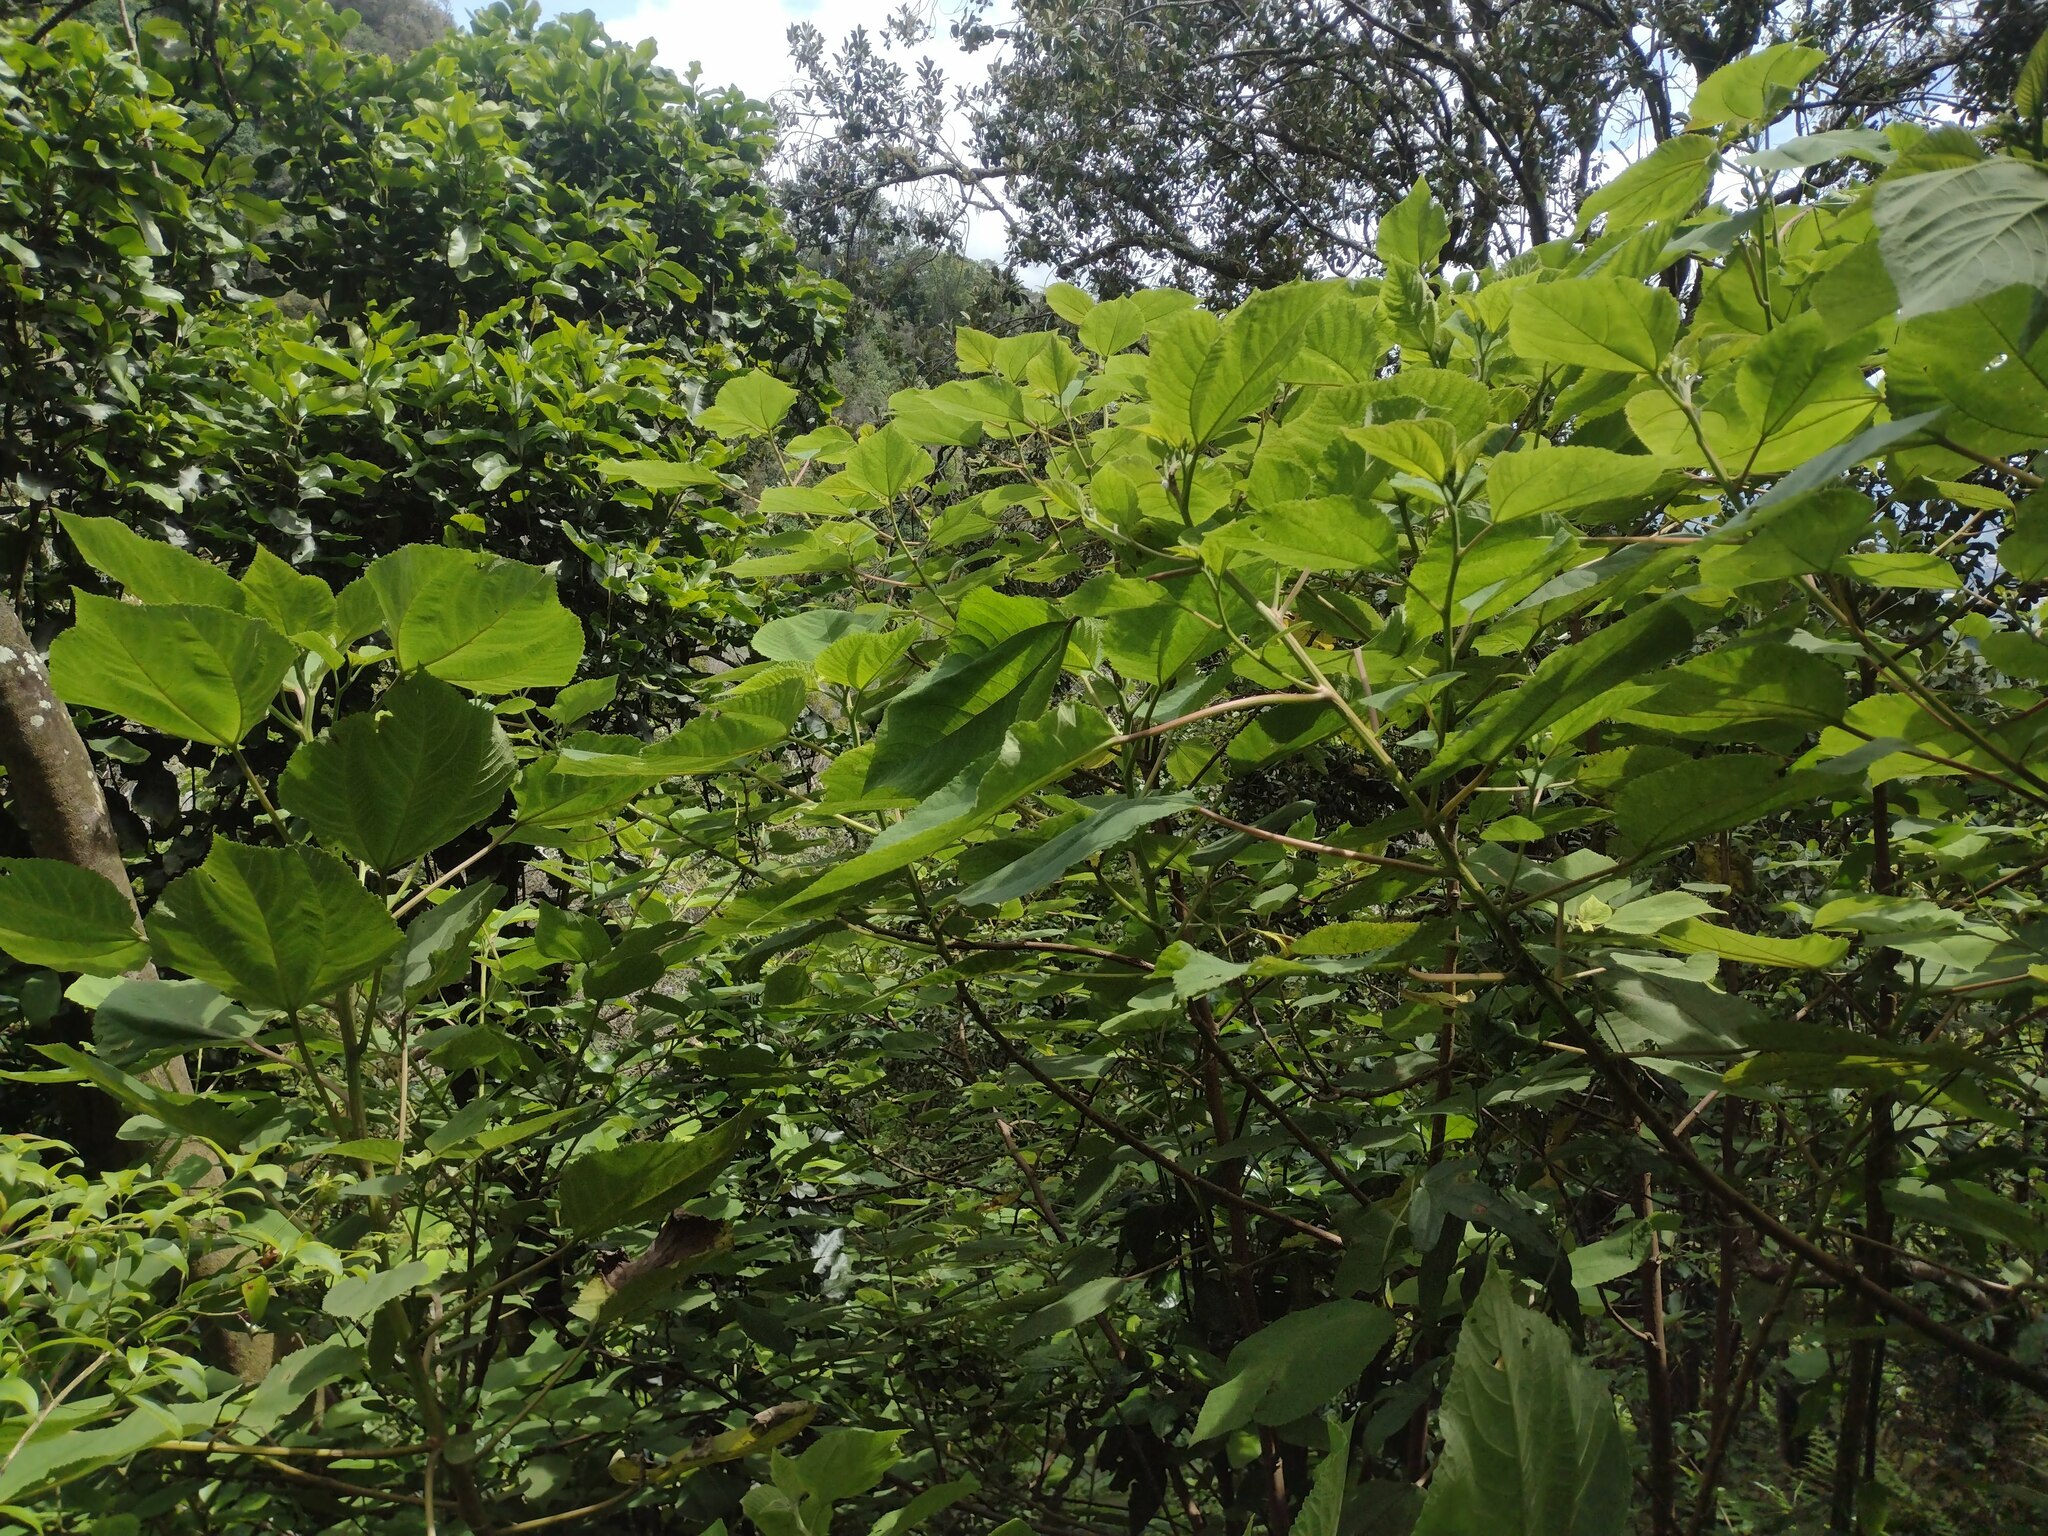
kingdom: Plantae
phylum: Tracheophyta
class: Magnoliopsida
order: Rosales
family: Urticaceae
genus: Pipturus
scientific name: Pipturus albidus
